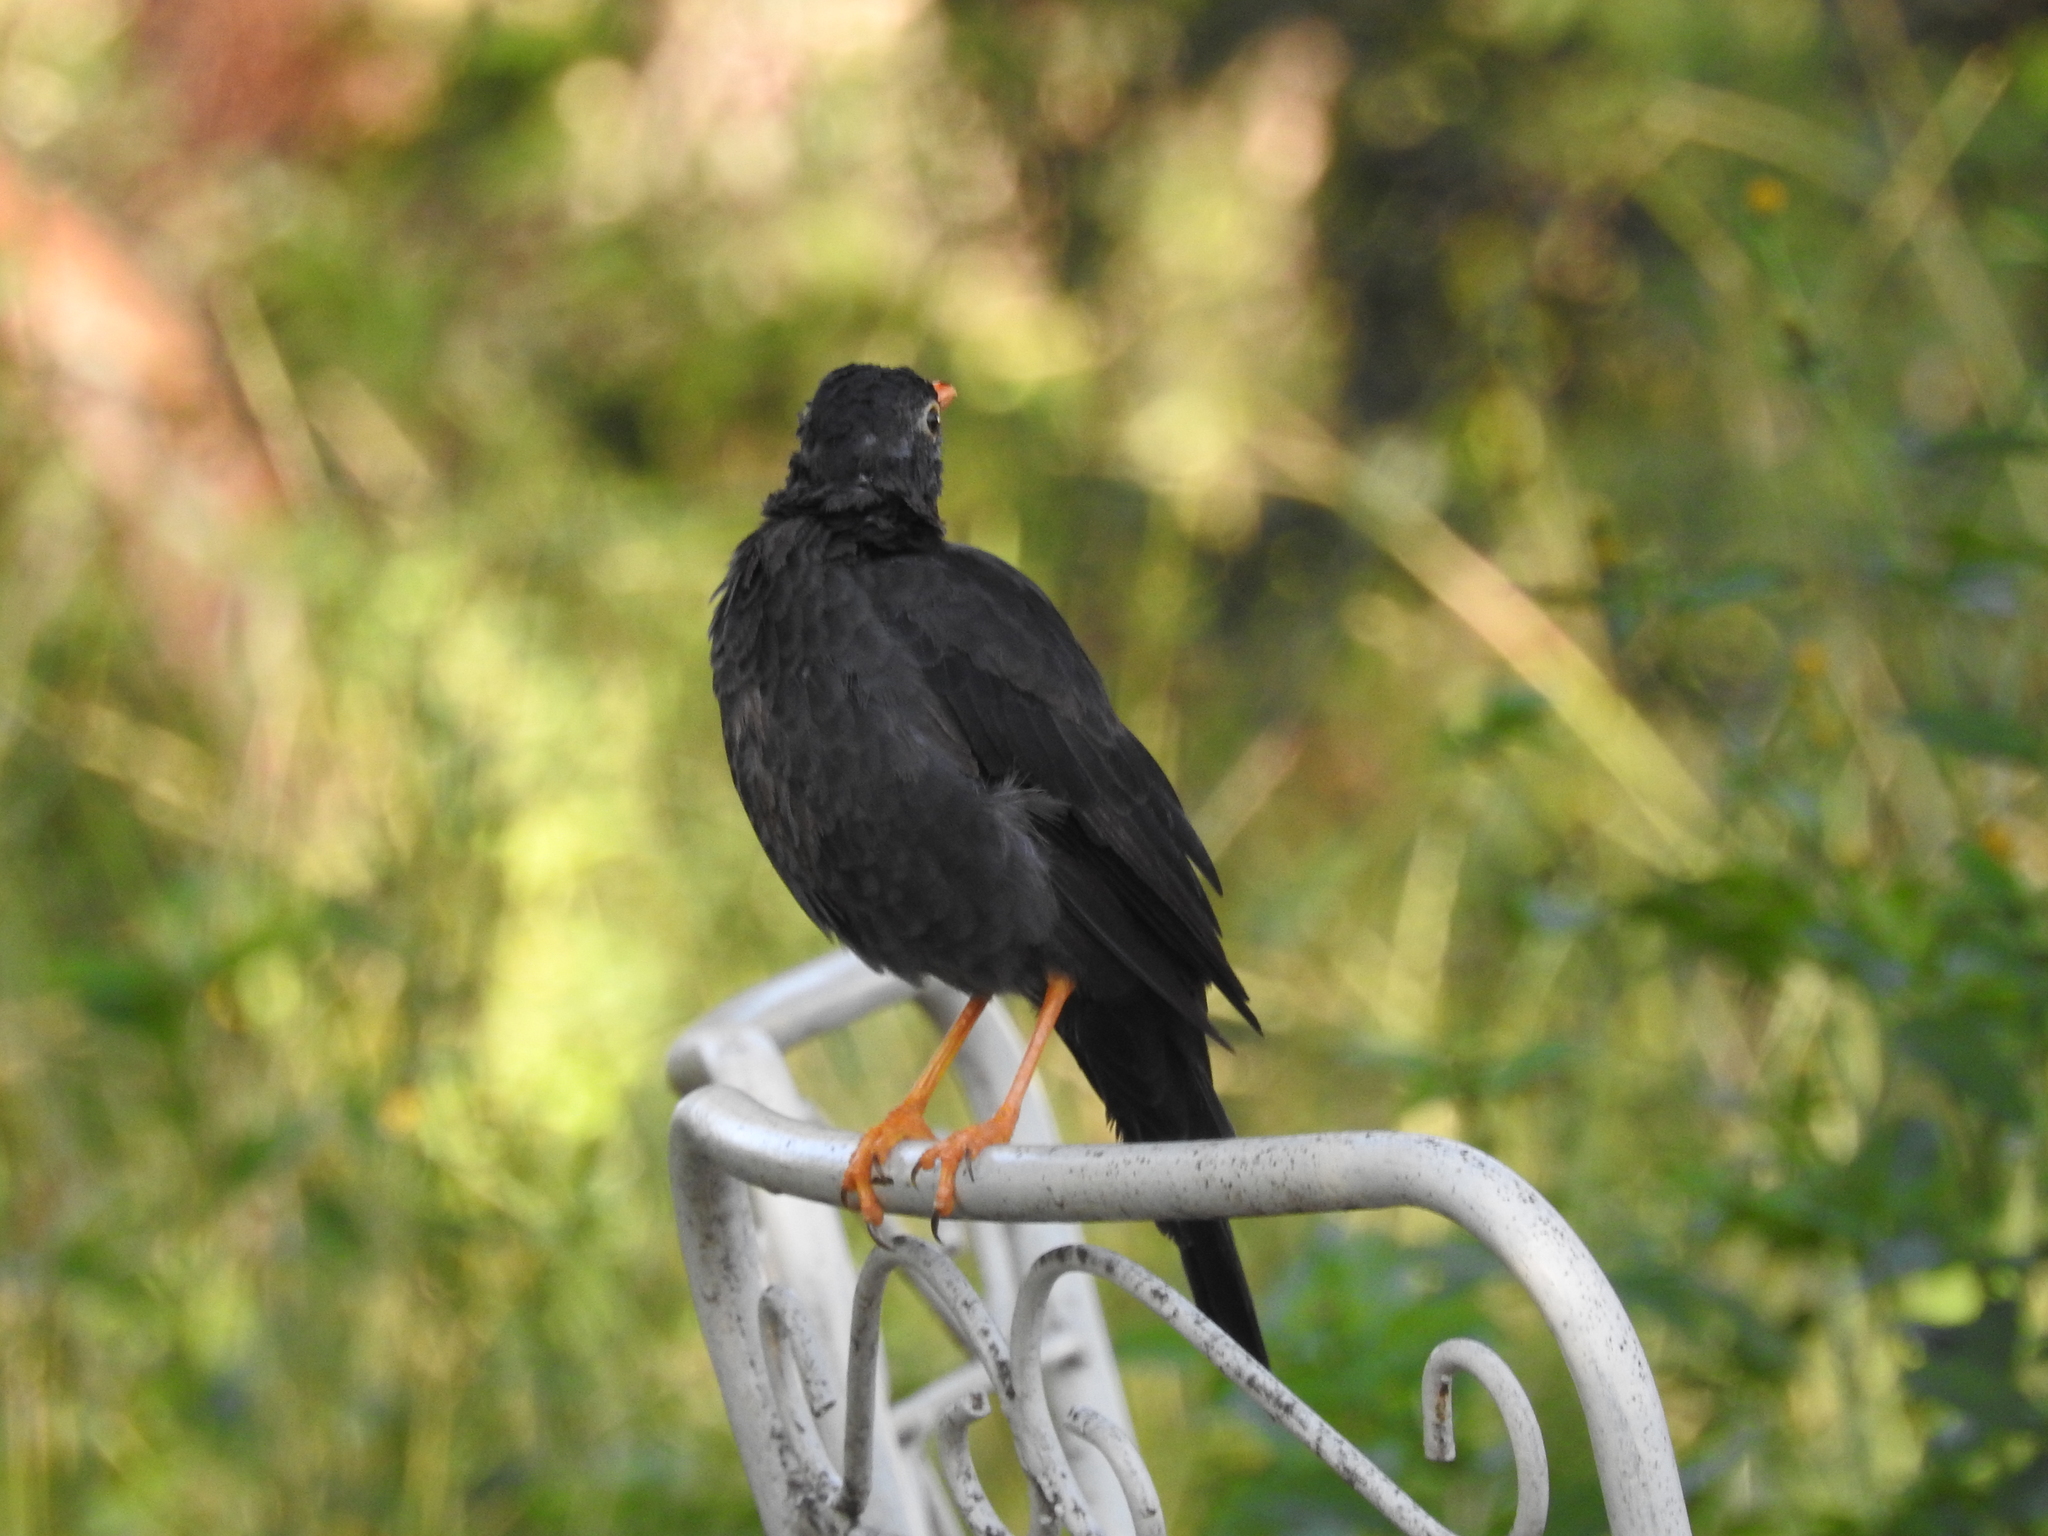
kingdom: Animalia
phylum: Chordata
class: Aves
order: Passeriformes
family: Turdidae
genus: Turdus
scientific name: Turdus chiguanco
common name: Chiguanco thrush
